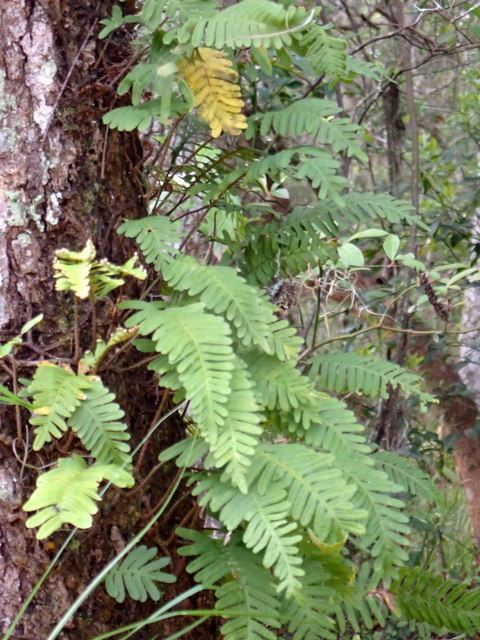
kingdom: Plantae
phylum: Tracheophyta
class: Polypodiopsida
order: Polypodiales
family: Polypodiaceae
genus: Pleopeltis
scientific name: Pleopeltis michauxiana
